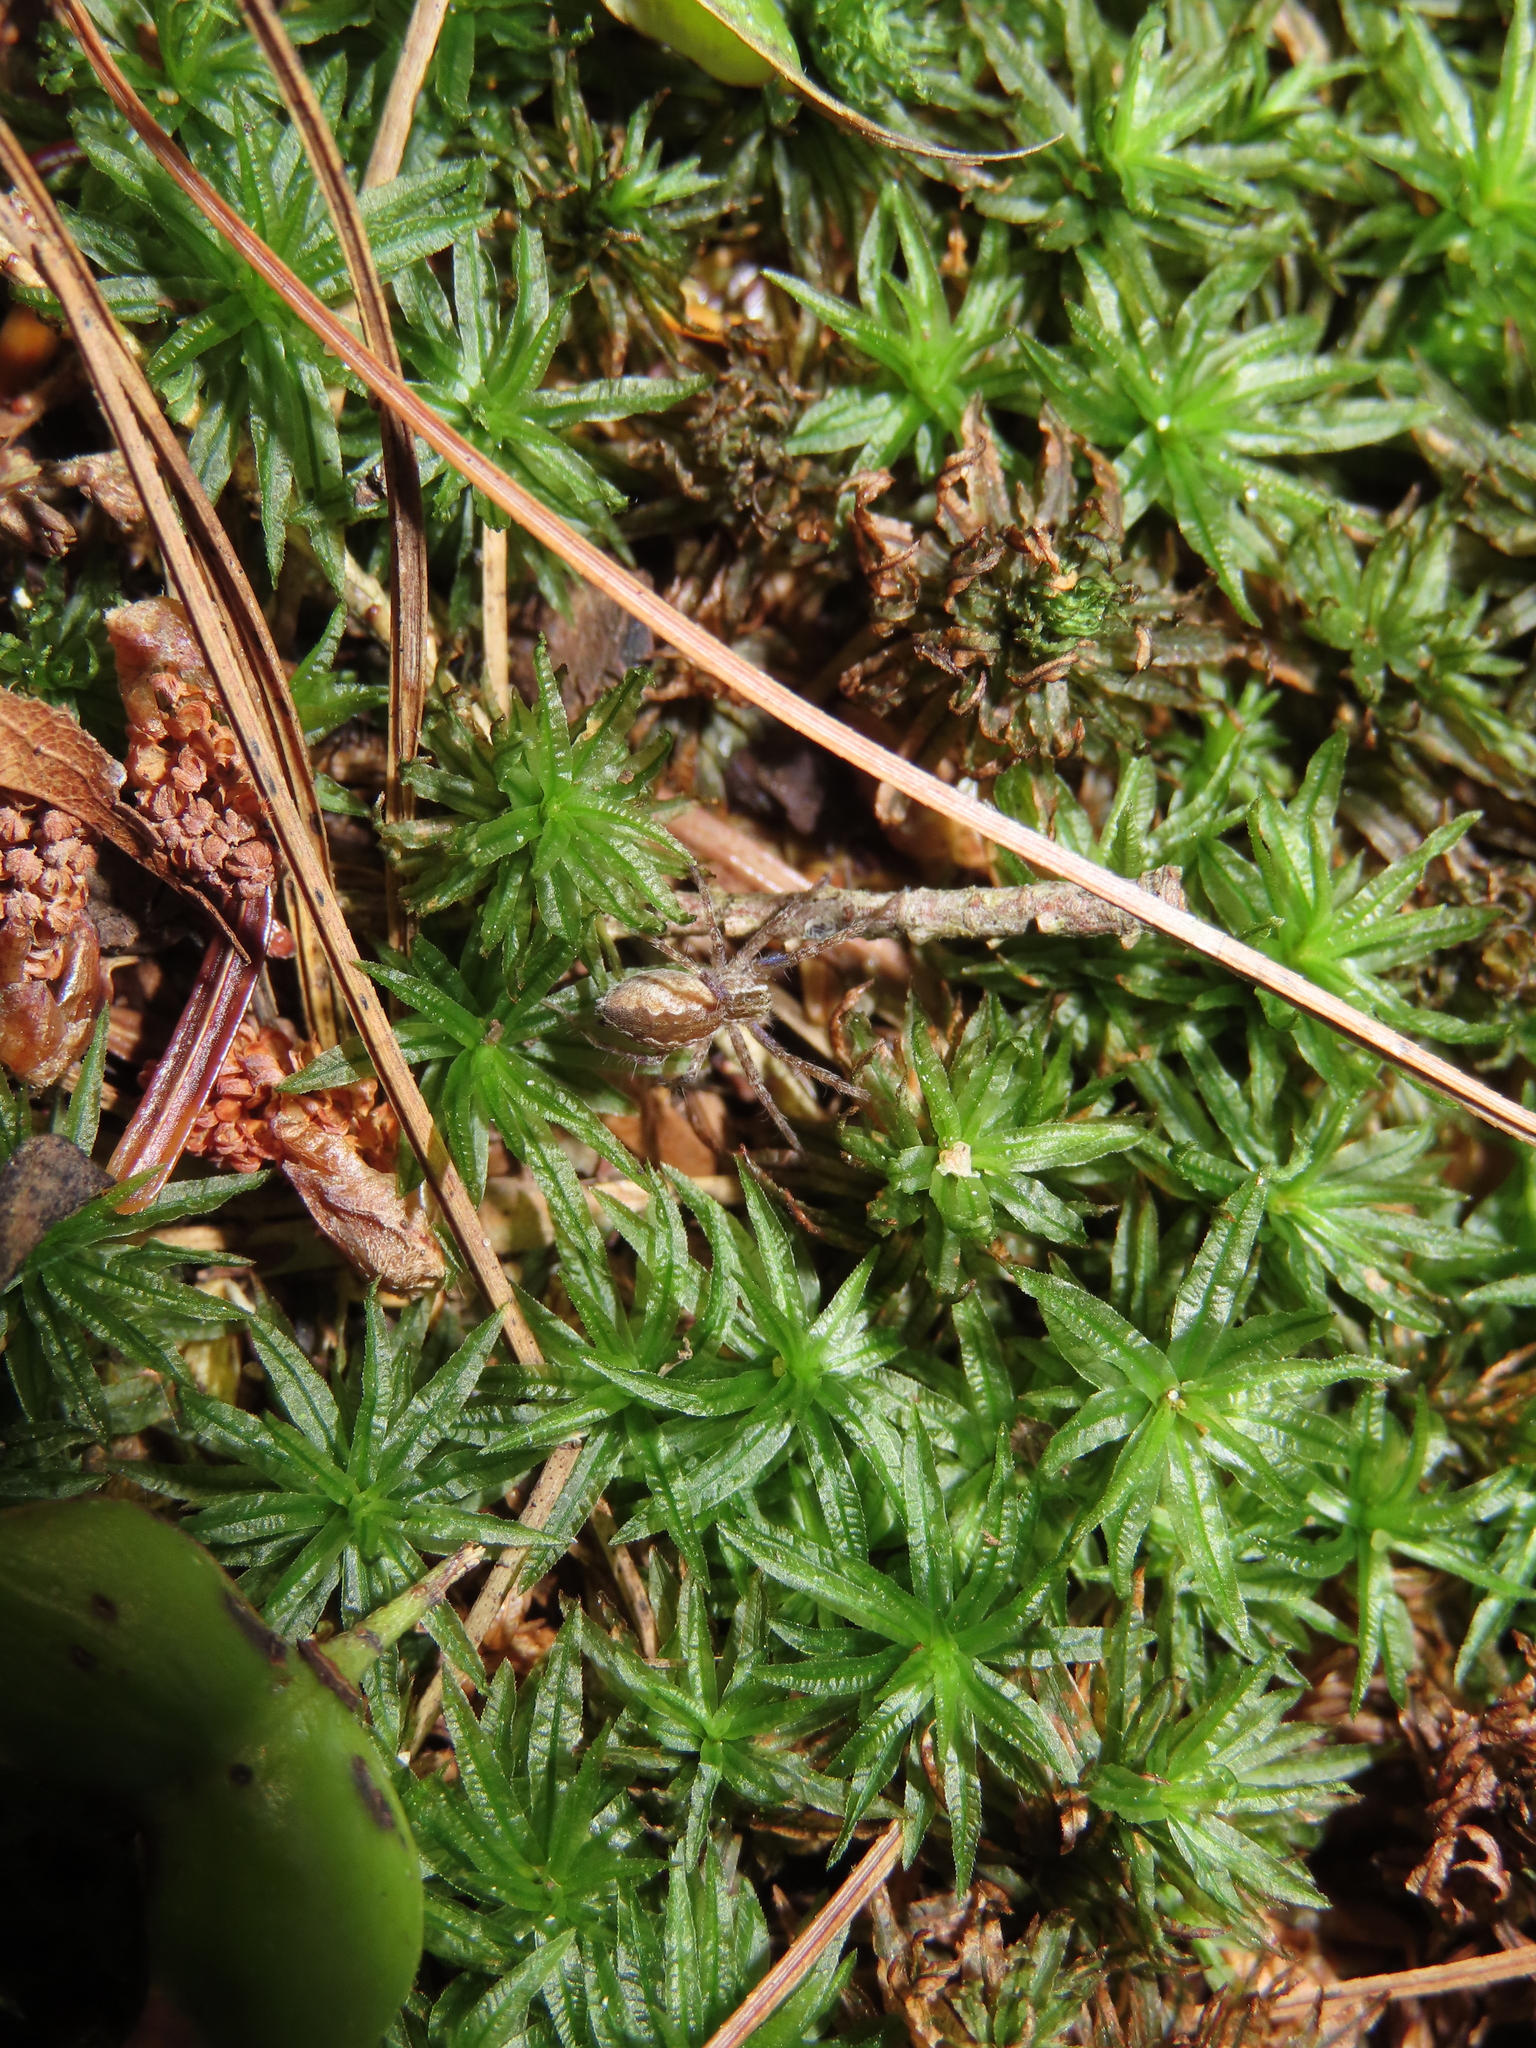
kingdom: Animalia
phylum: Arthropoda
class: Arachnida
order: Araneae
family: Pisauridae
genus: Pisaurina
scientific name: Pisaurina mira
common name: American nursery web spider
